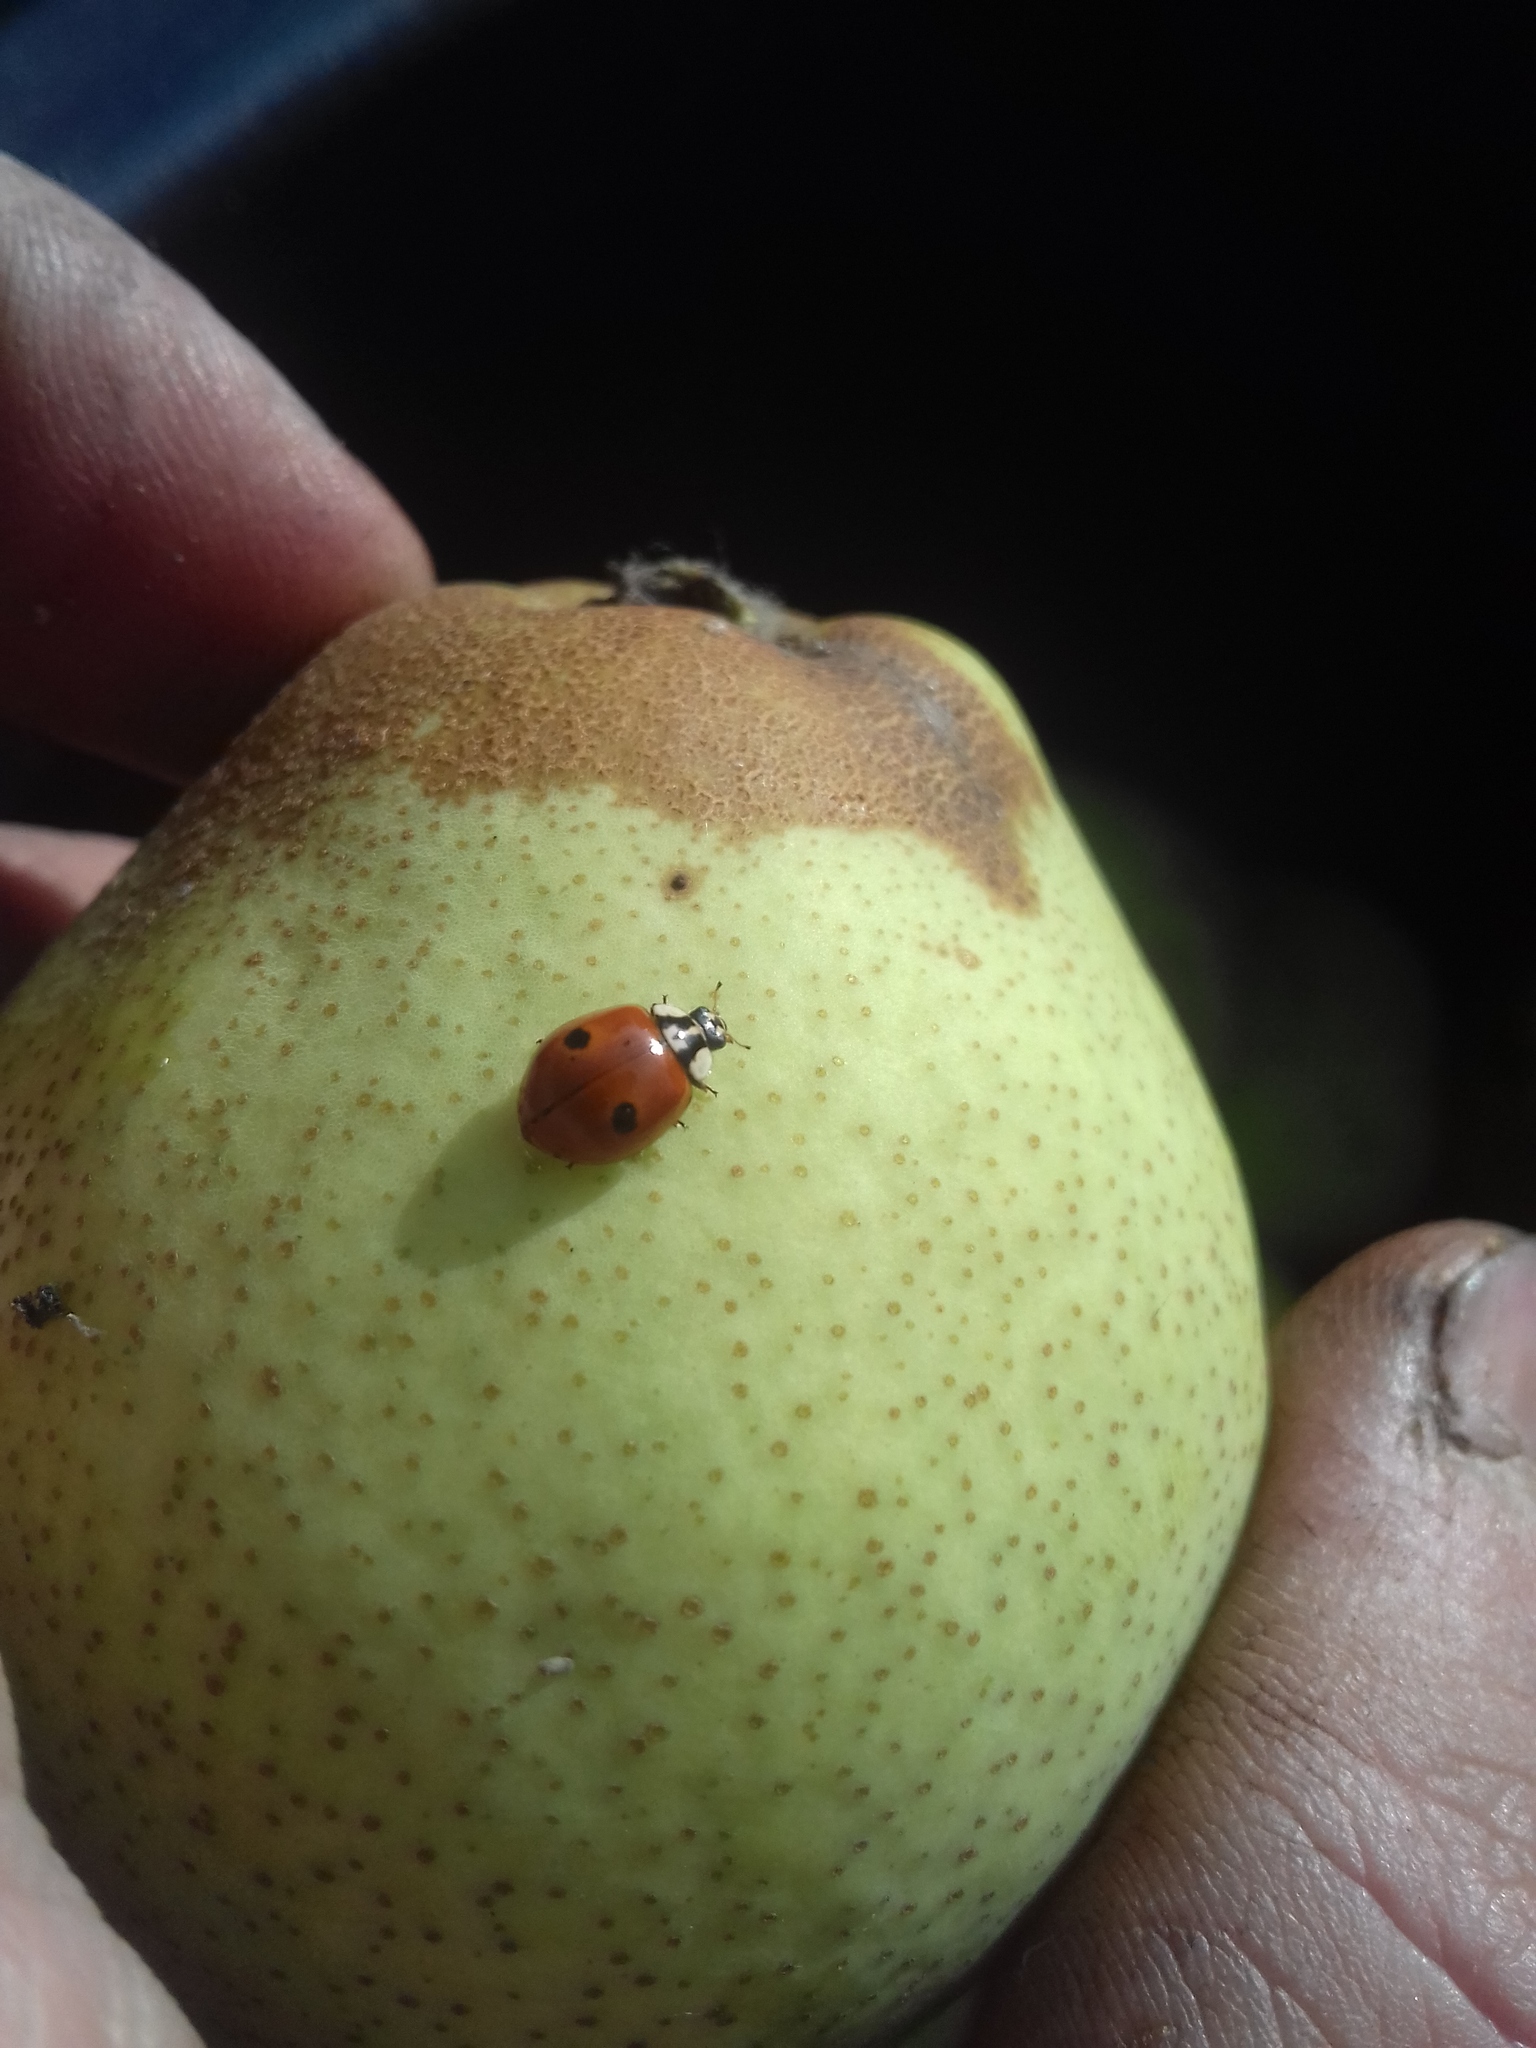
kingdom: Animalia
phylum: Arthropoda
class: Insecta
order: Coleoptera
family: Coccinellidae
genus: Adalia
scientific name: Adalia bipunctata
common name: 2-spot ladybird
